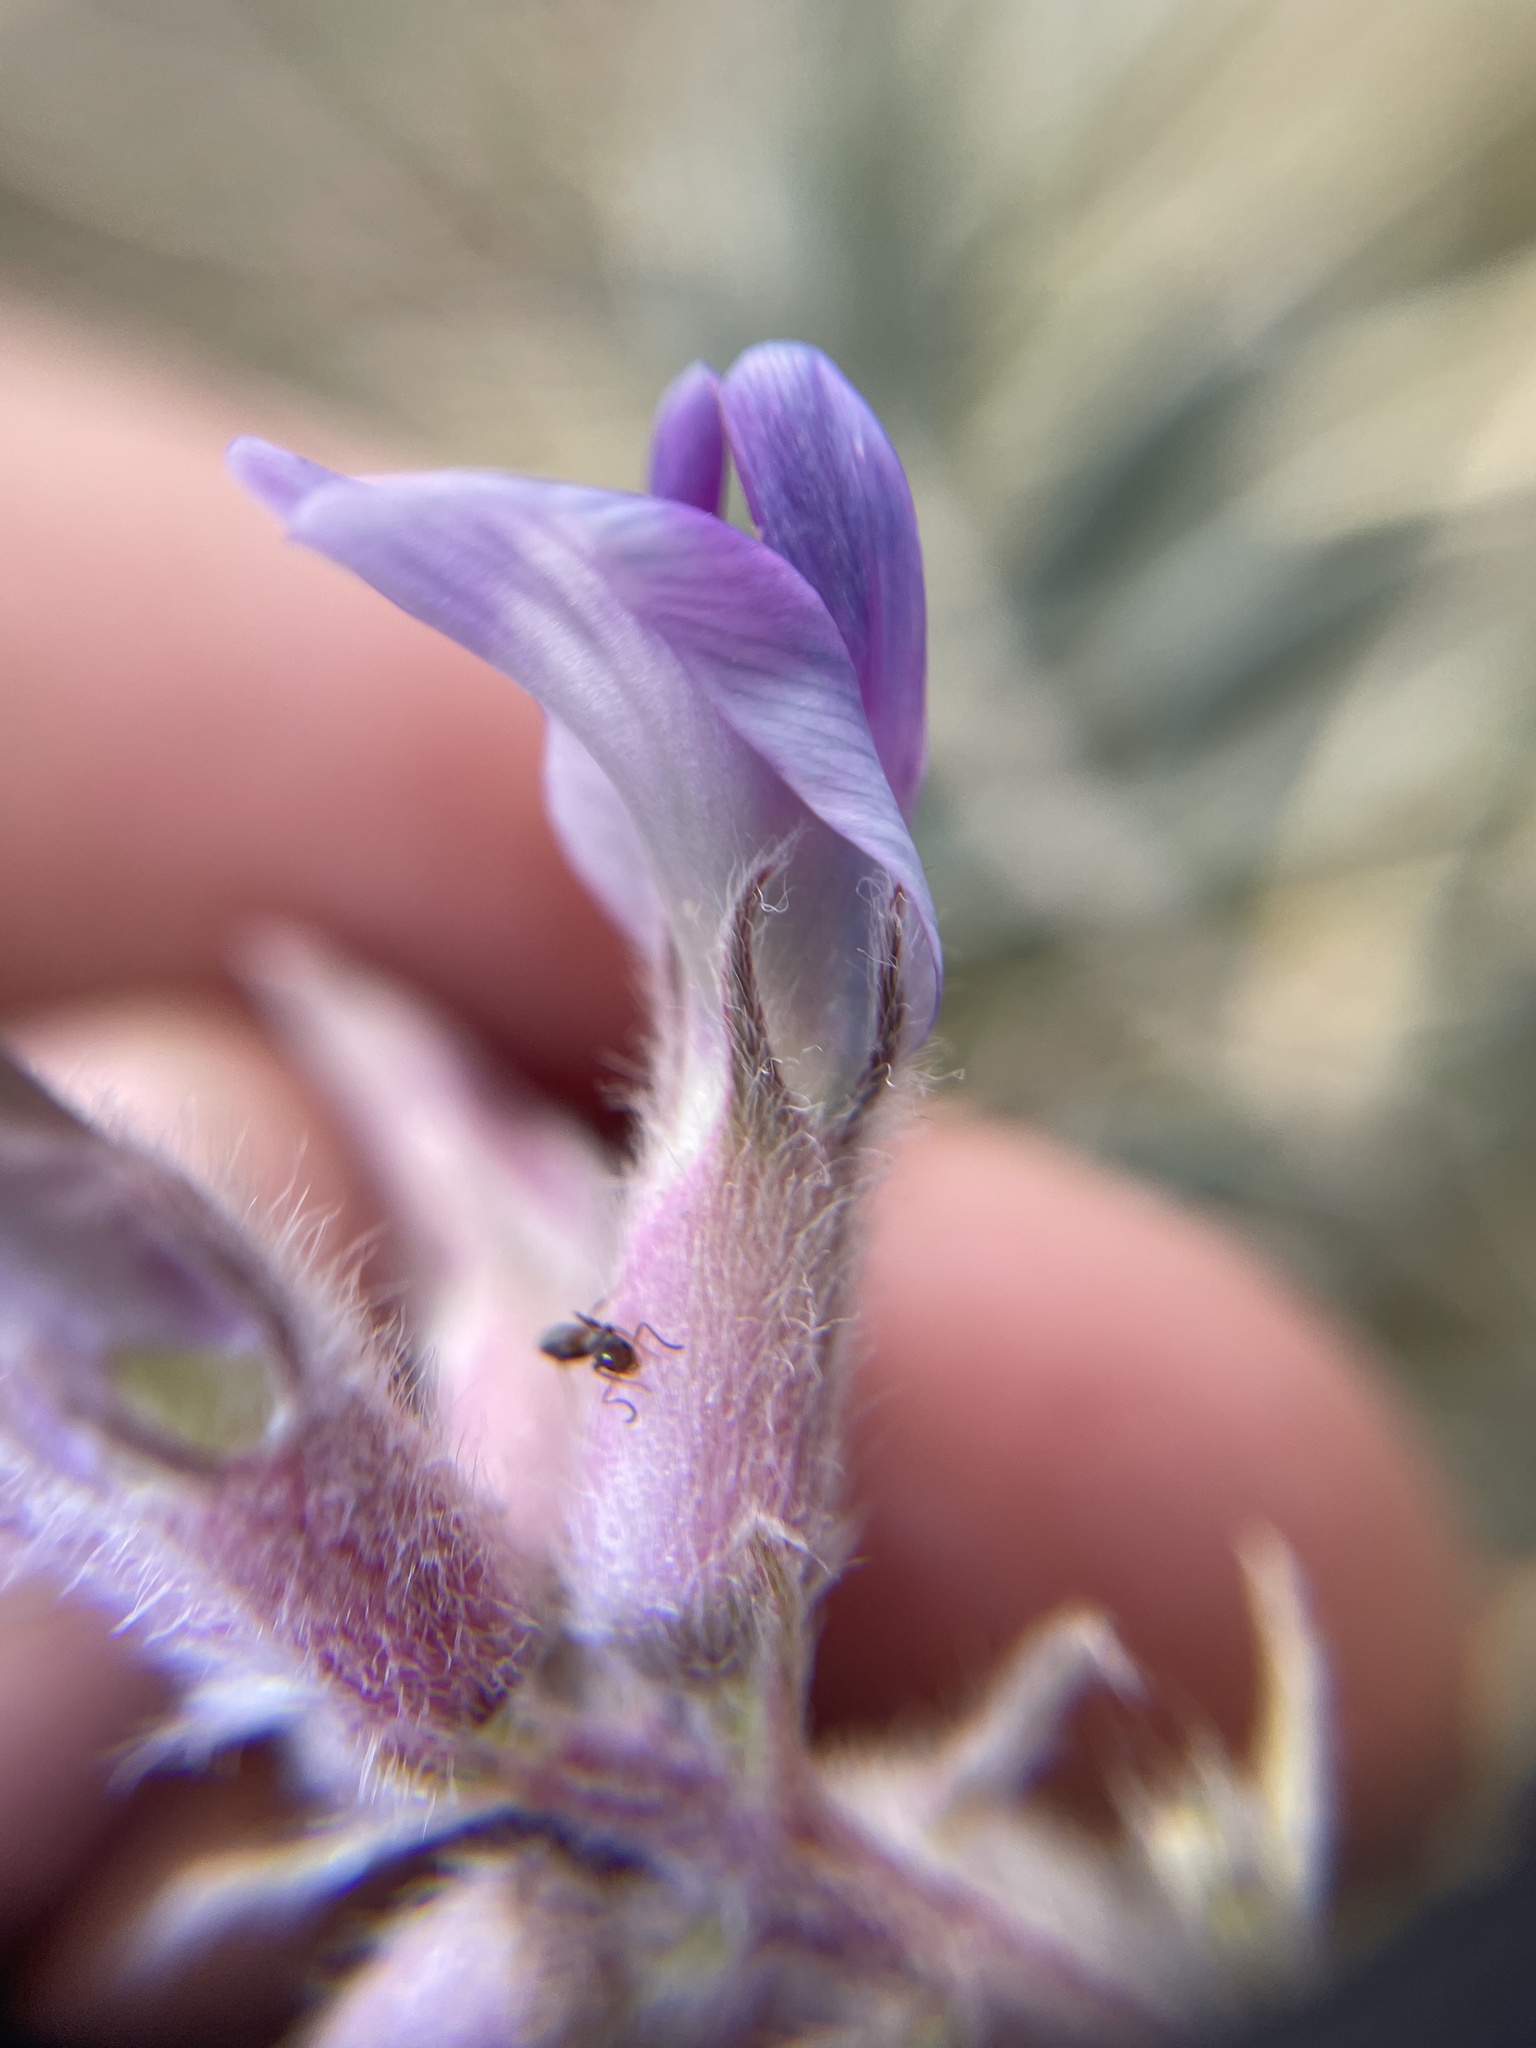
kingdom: Plantae
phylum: Tracheophyta
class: Magnoliopsida
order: Fabales
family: Fabaceae
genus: Astragalus
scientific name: Astragalus shortianus
